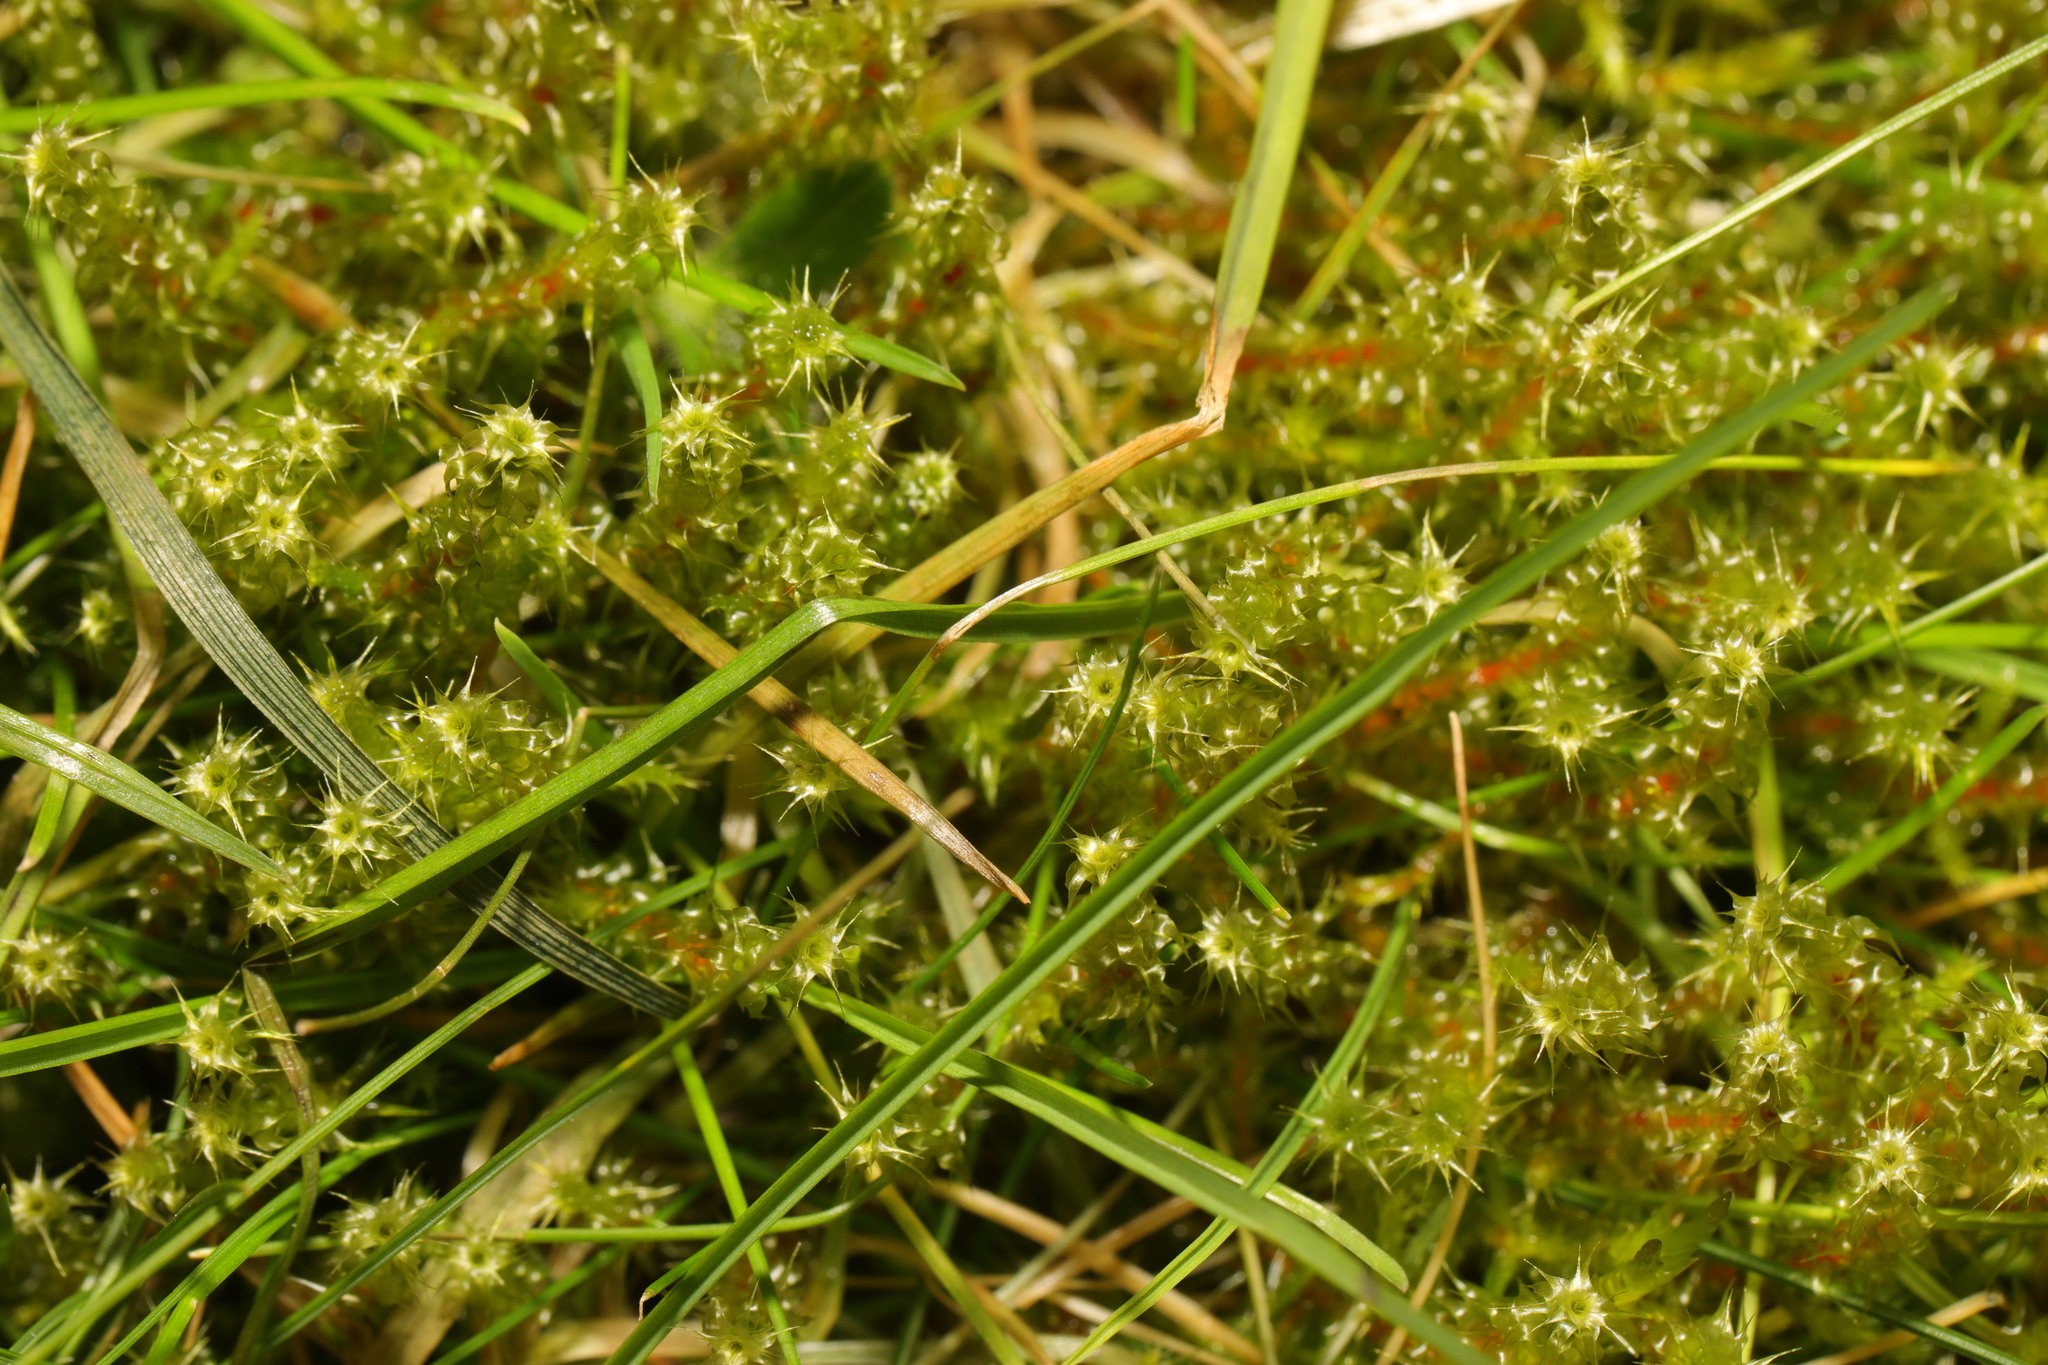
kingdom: Plantae
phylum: Bryophyta
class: Bryopsida
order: Hypnales
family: Hylocomiaceae
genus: Rhytidiadelphus
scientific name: Rhytidiadelphus squarrosus
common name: Springy turf-moss
